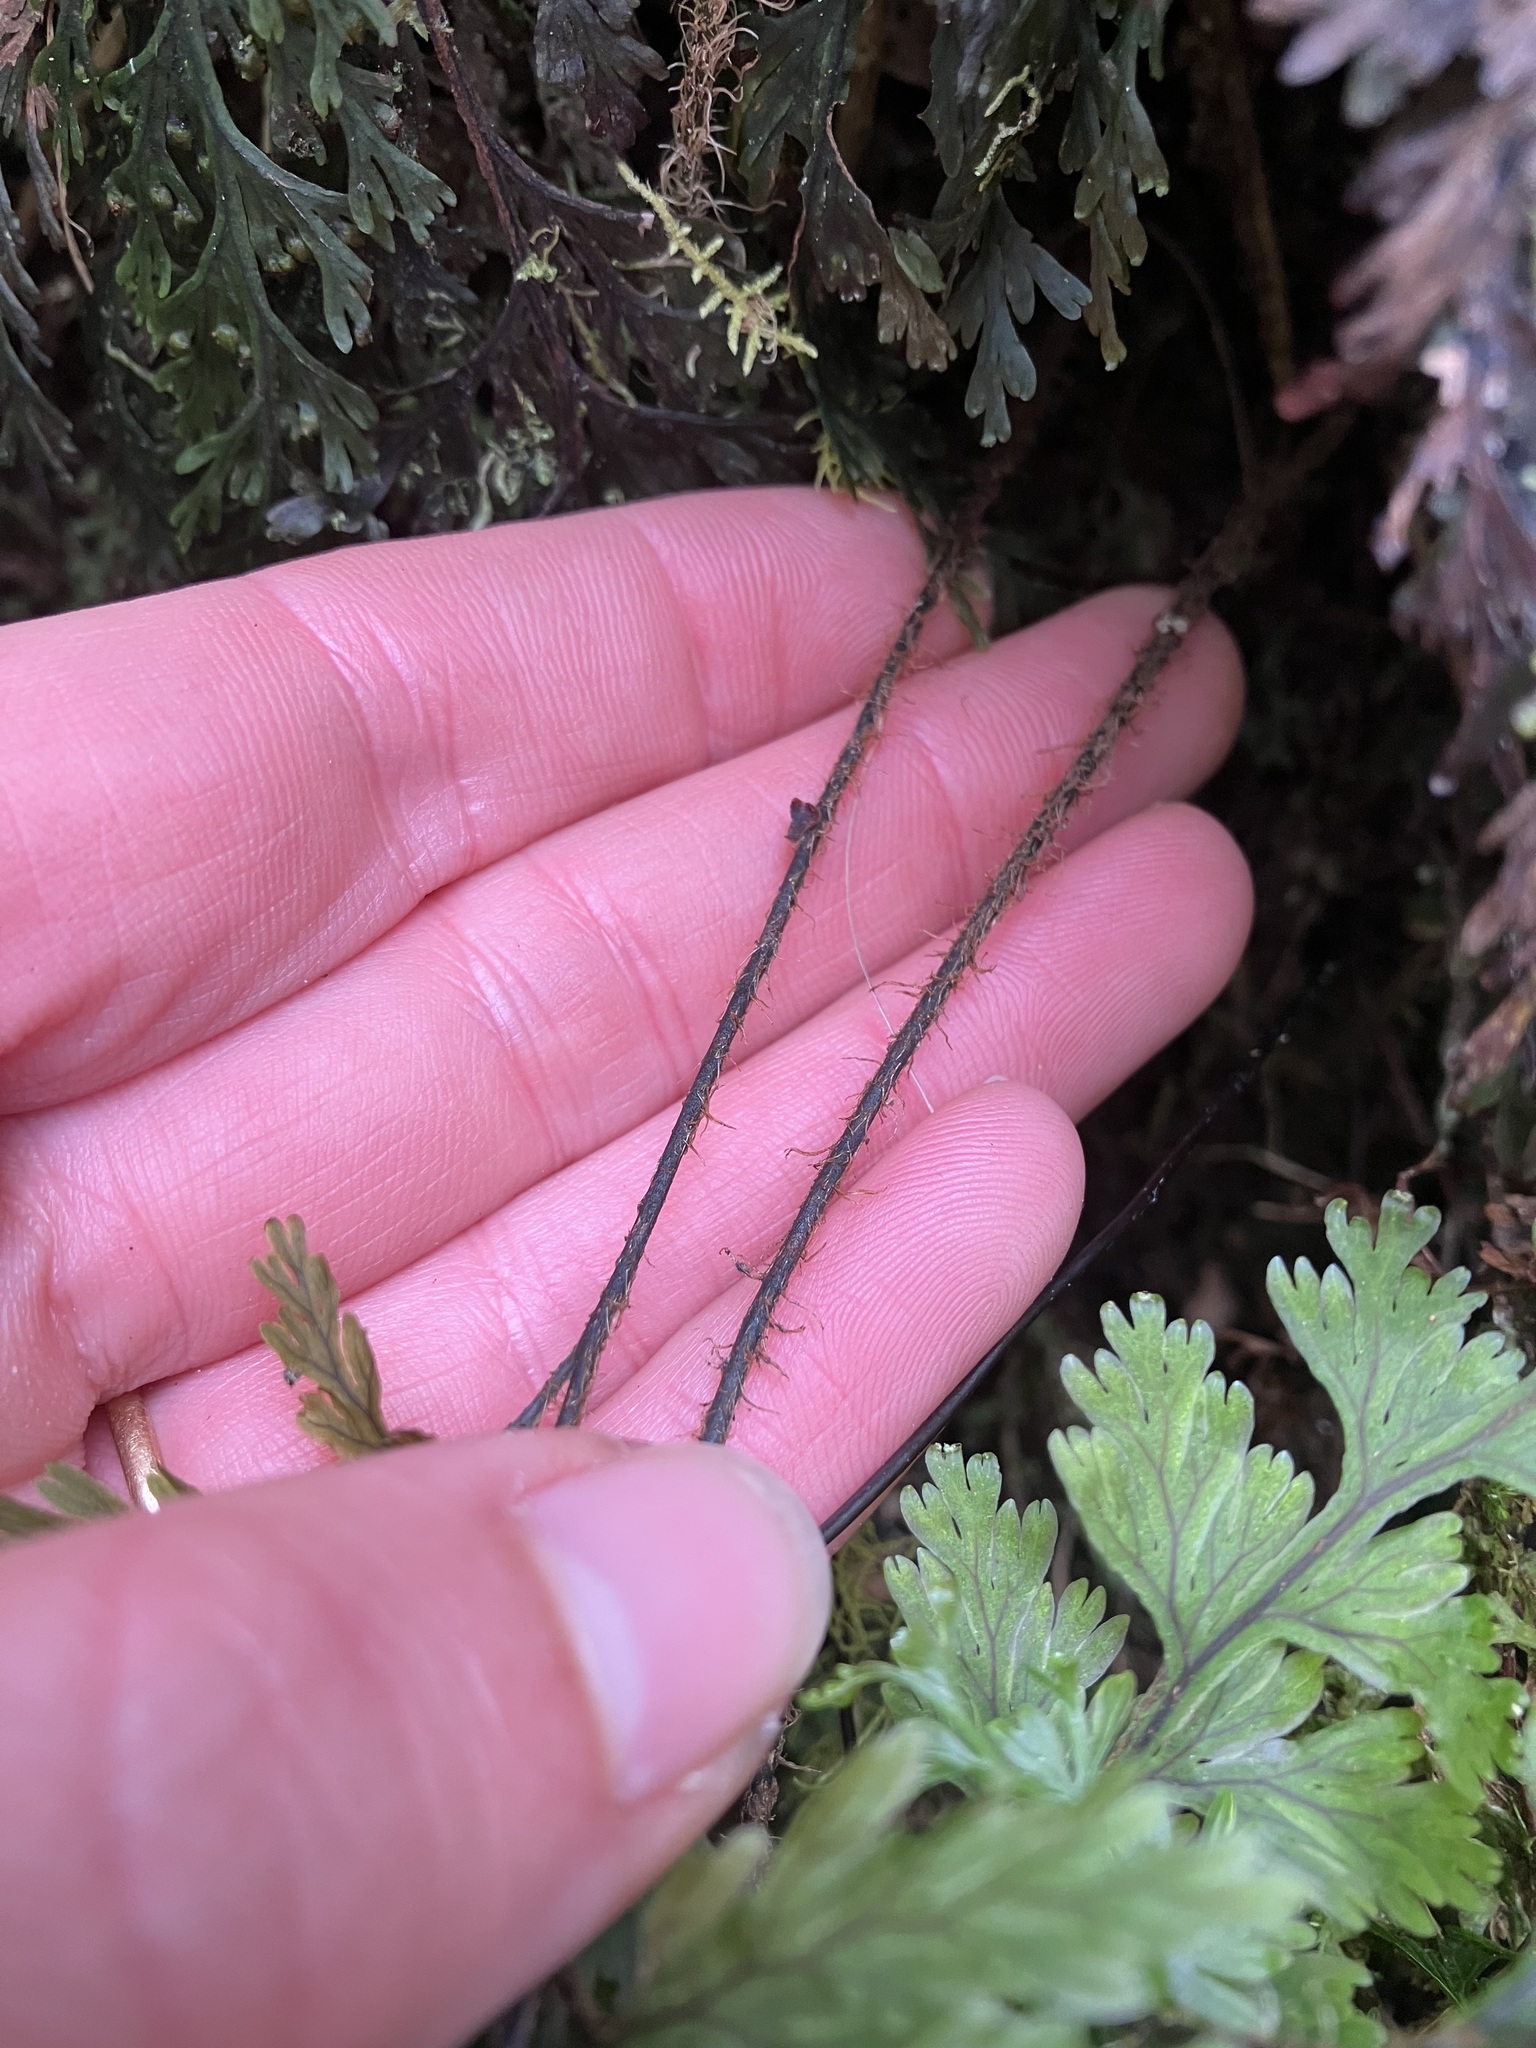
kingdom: Plantae
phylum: Tracheophyta
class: Polypodiopsida
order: Hymenophyllales
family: Hymenophyllaceae
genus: Hymenophyllum
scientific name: Hymenophyllum scabrum
